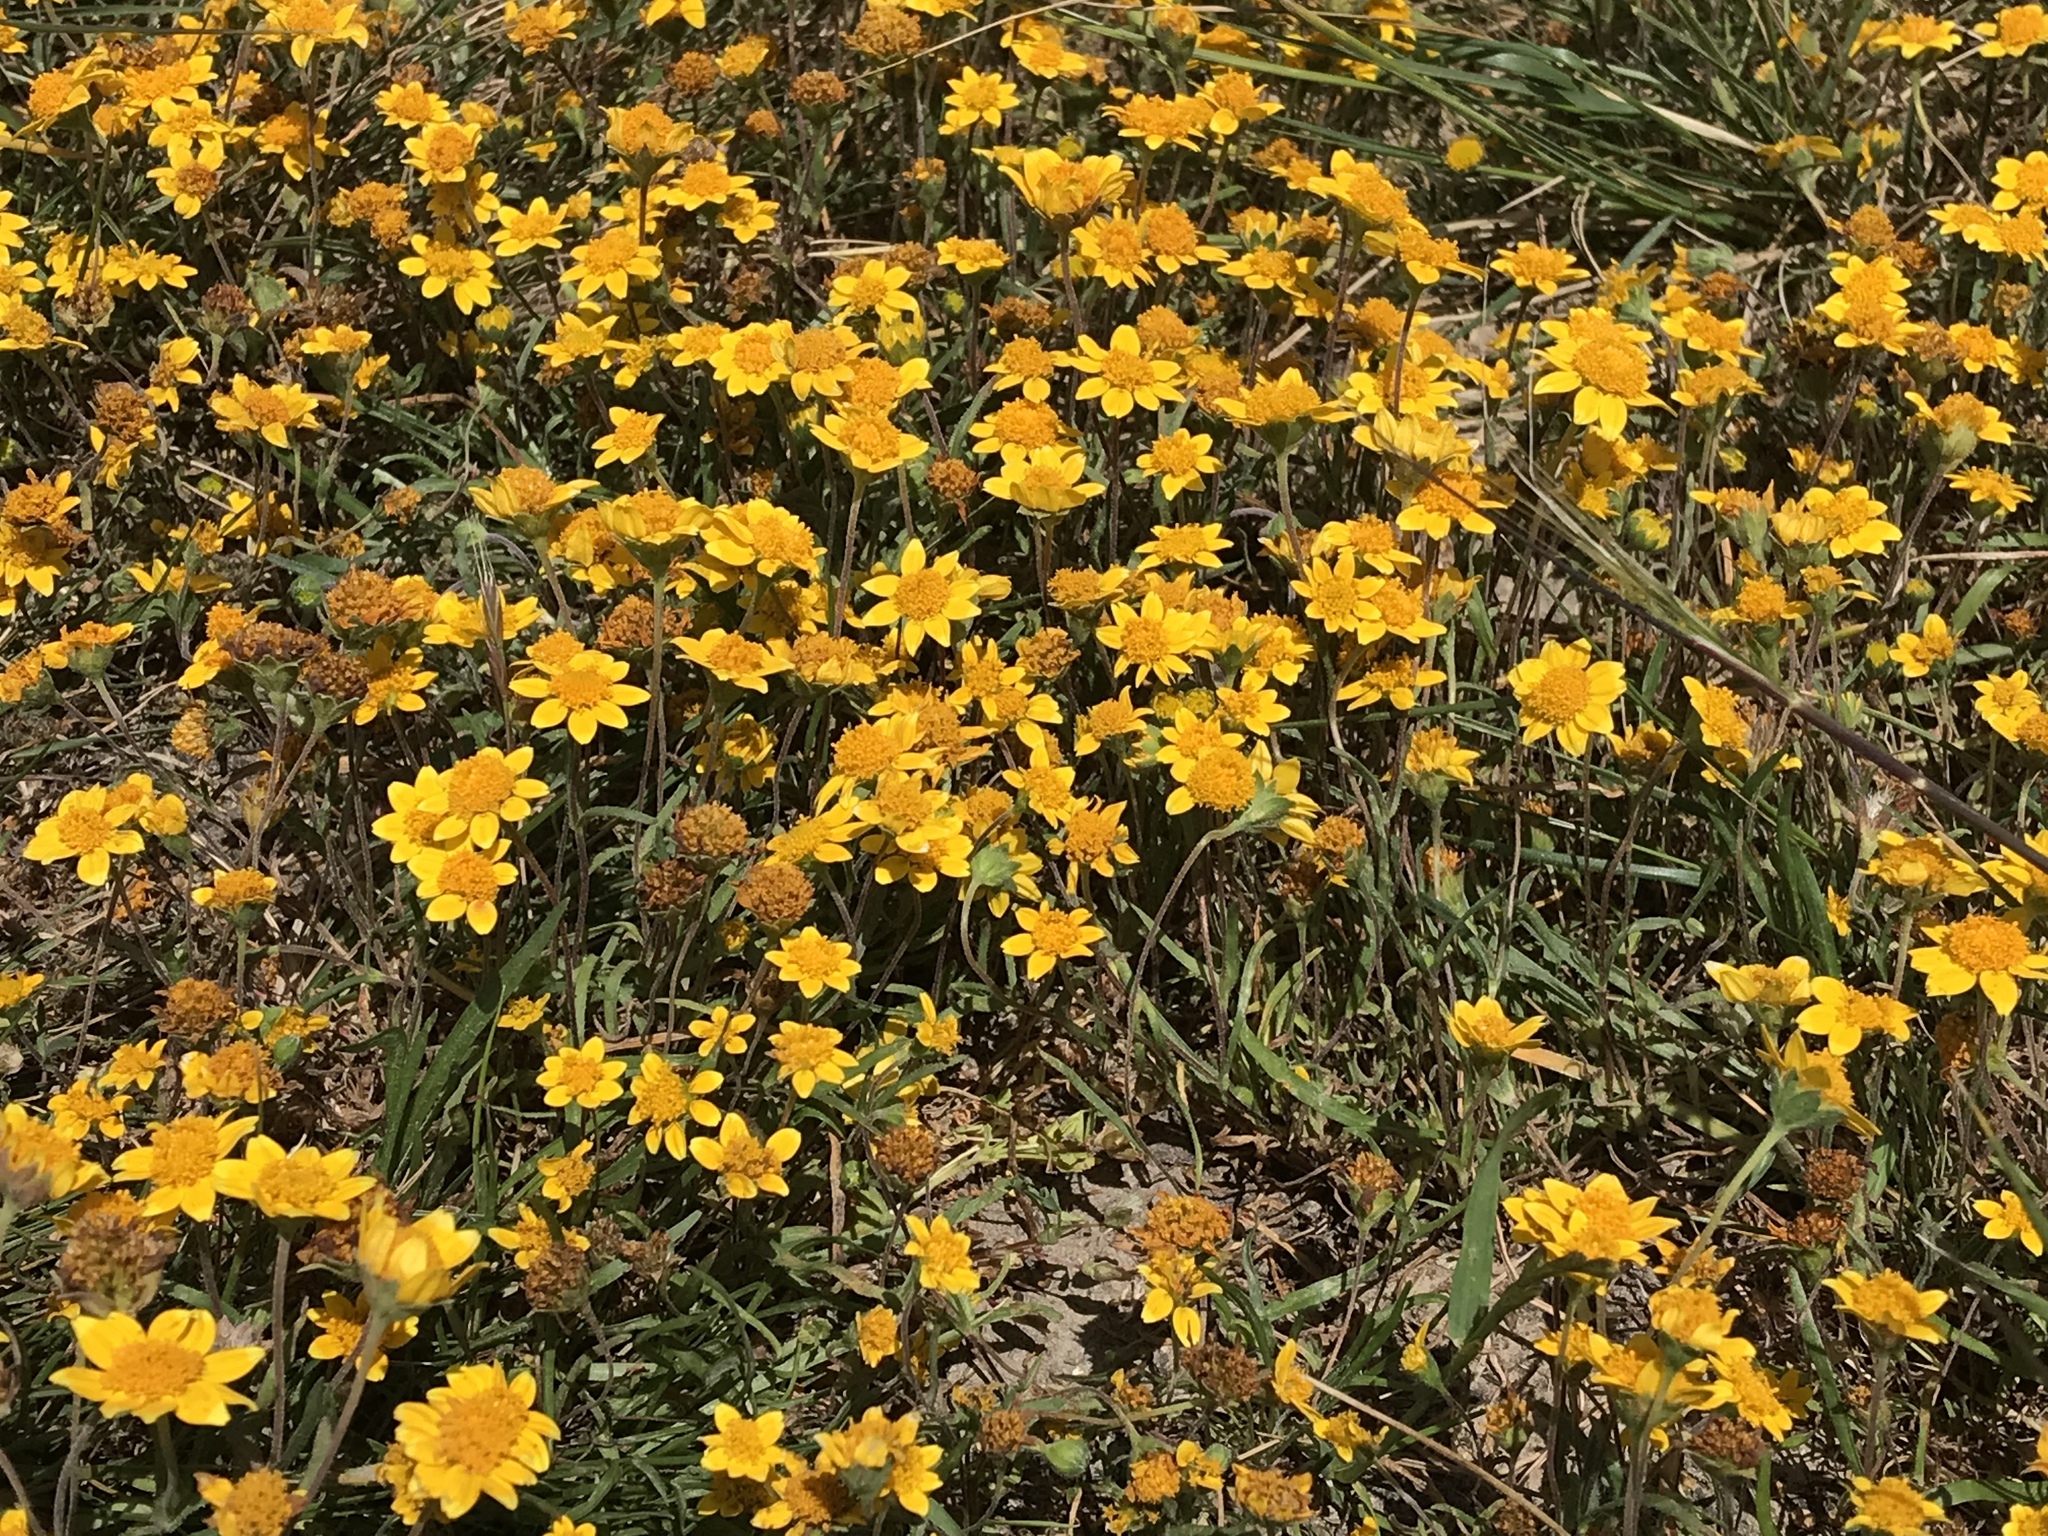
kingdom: Plantae
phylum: Tracheophyta
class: Magnoliopsida
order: Asterales
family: Asteraceae
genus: Lasthenia
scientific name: Lasthenia californica
